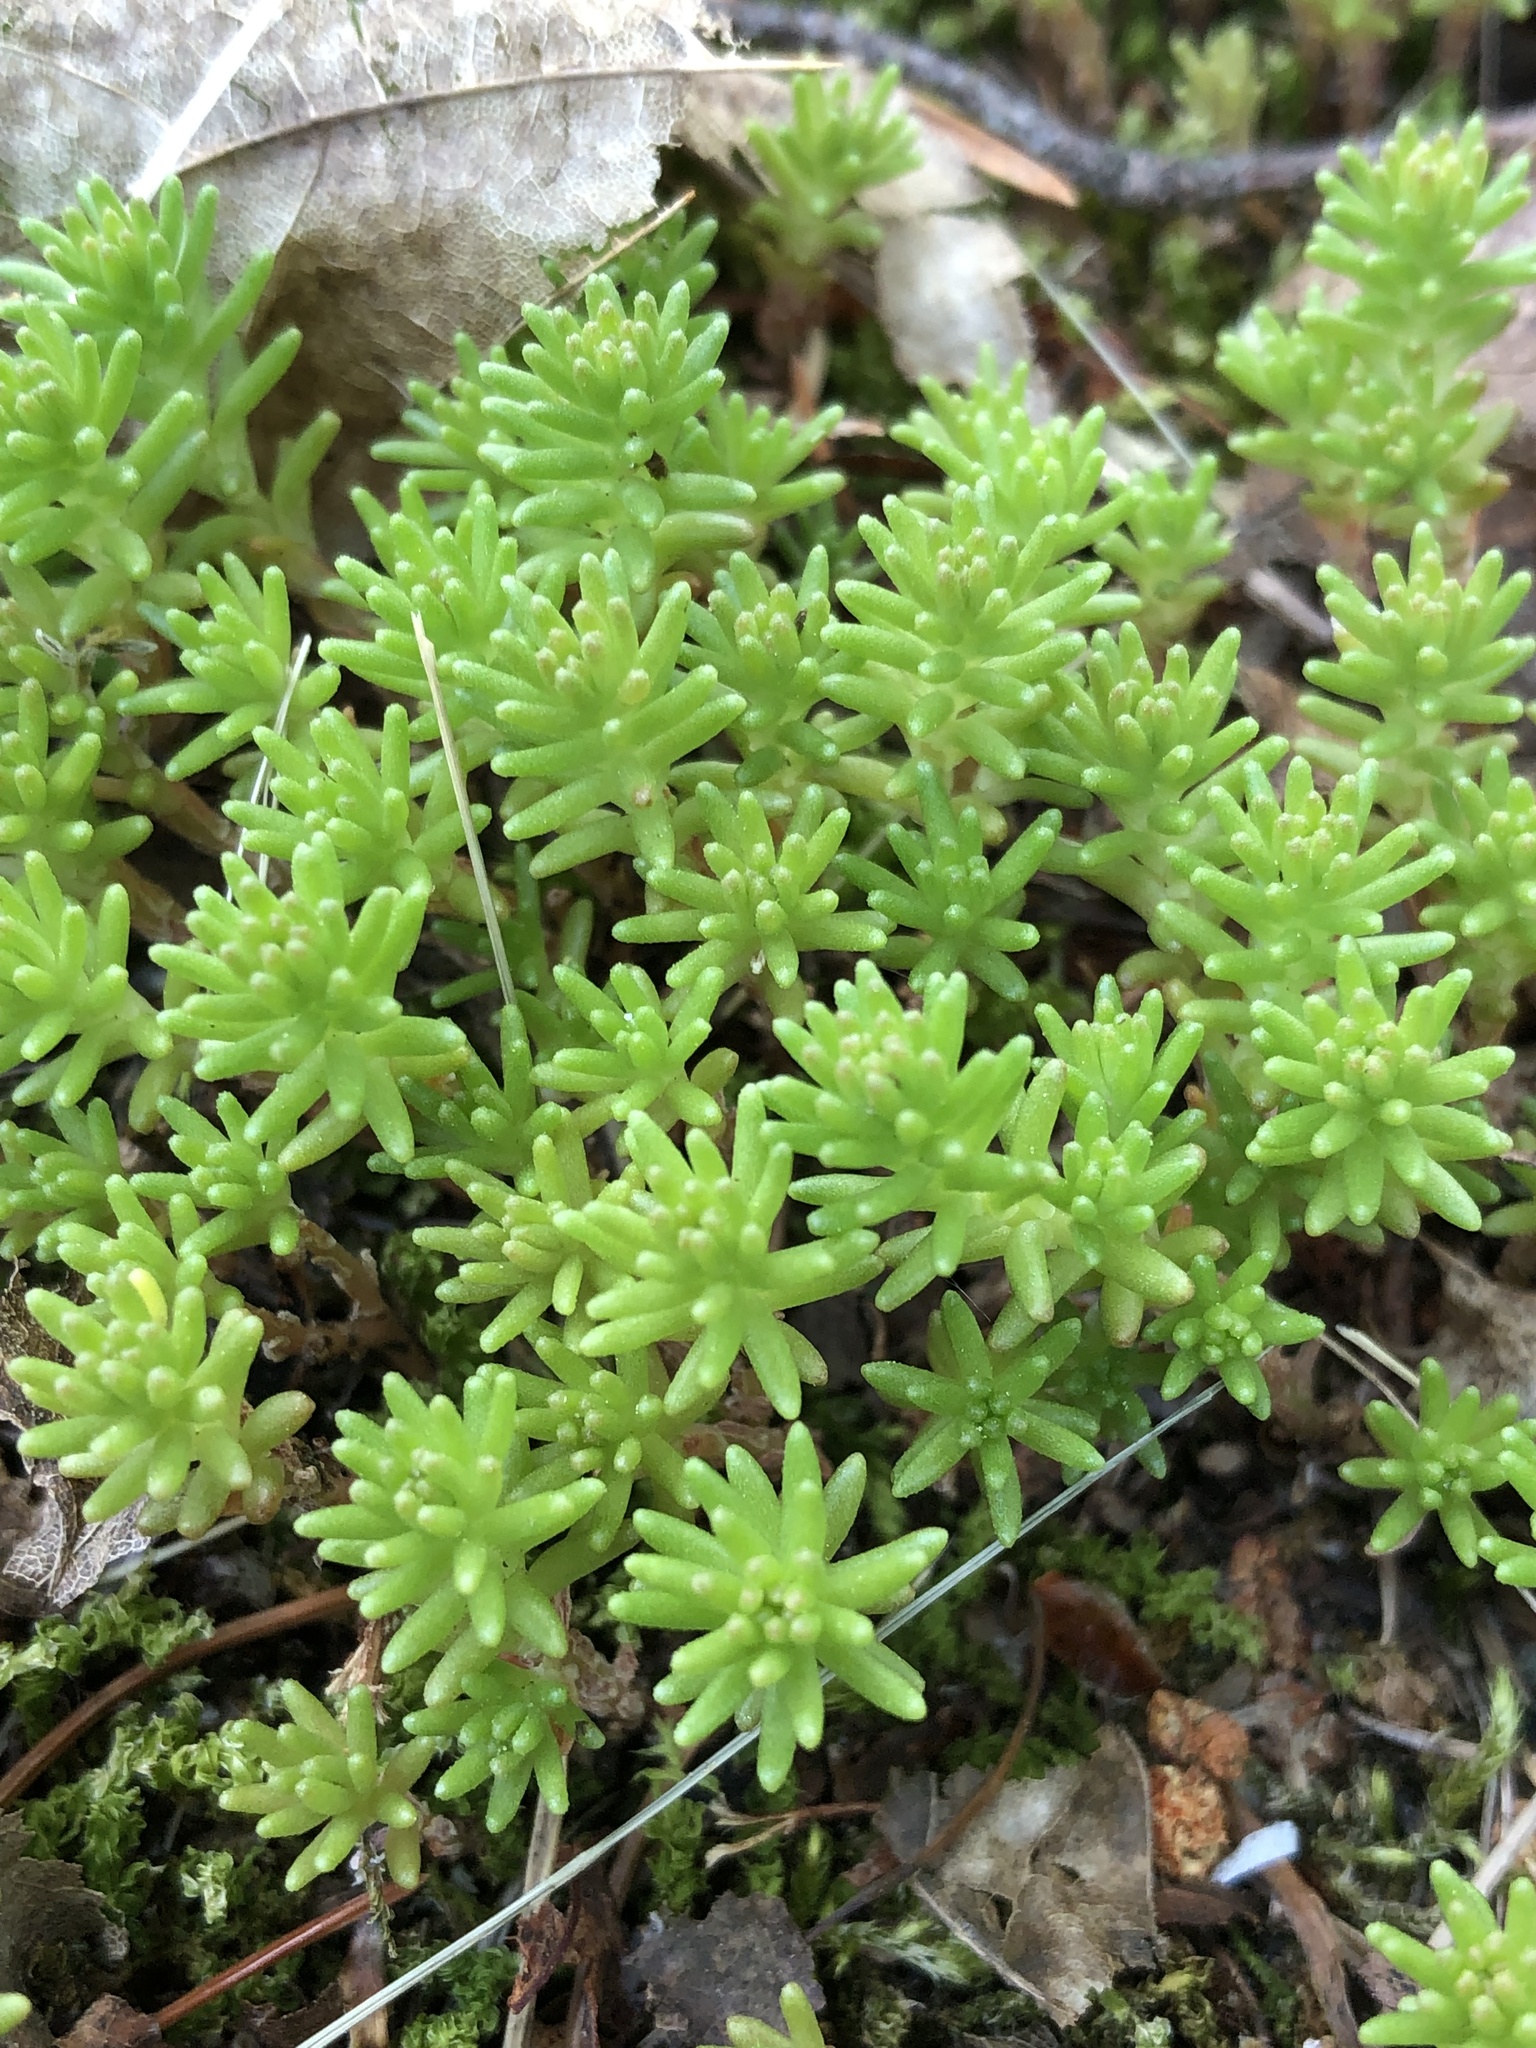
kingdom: Plantae
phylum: Tracheophyta
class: Magnoliopsida
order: Saxifragales
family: Crassulaceae
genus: Sedum
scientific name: Sedum sexangulare
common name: Tasteless stonecrop
